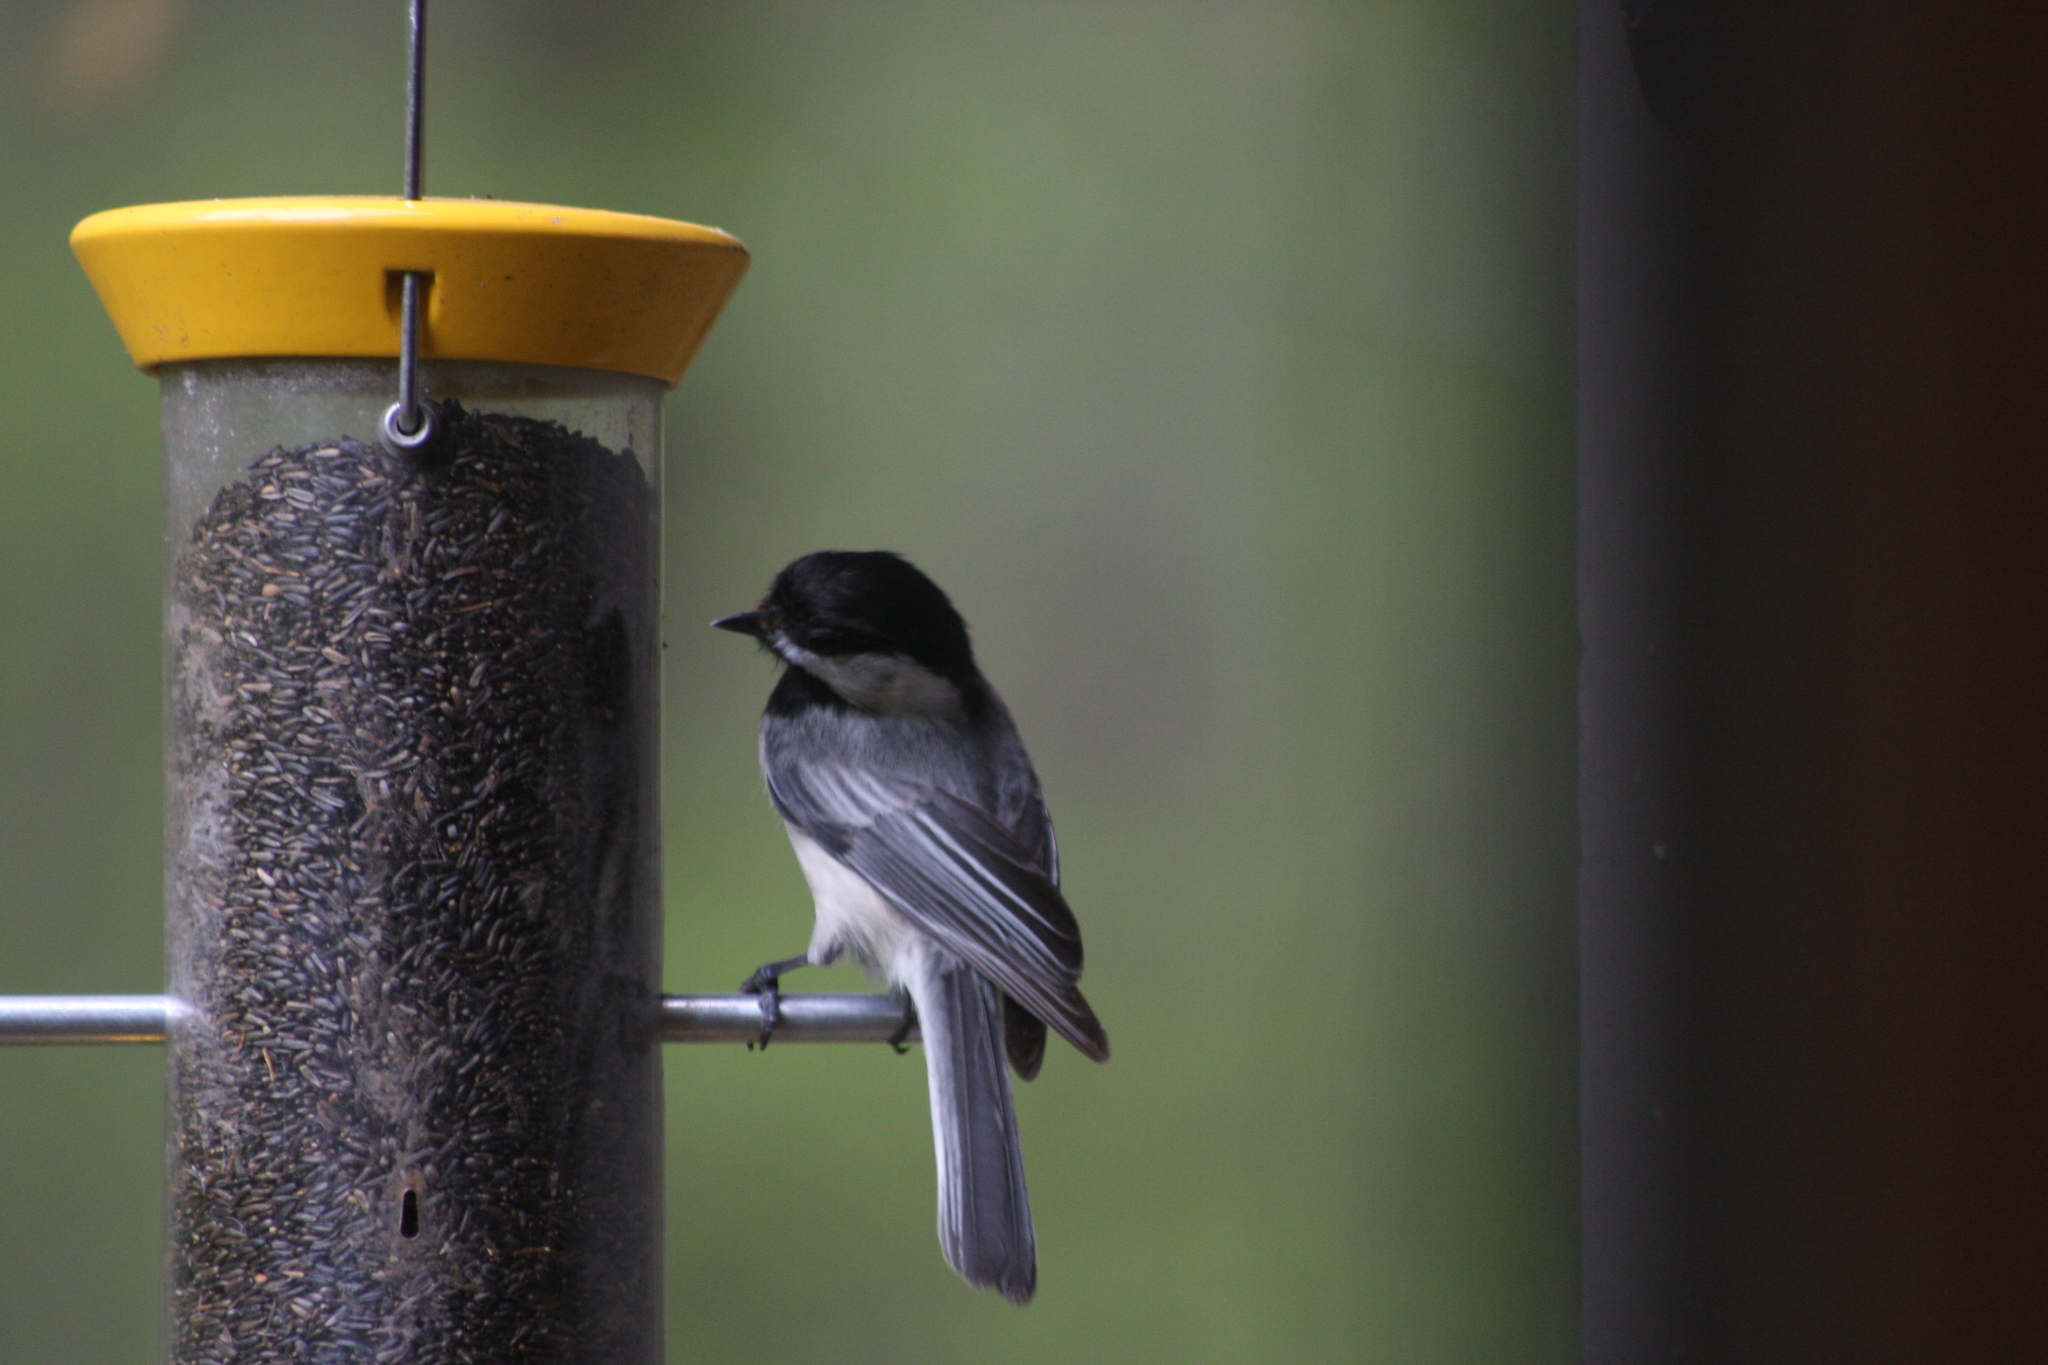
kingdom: Animalia
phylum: Chordata
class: Aves
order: Passeriformes
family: Paridae
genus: Poecile
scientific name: Poecile atricapillus
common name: Black-capped chickadee
